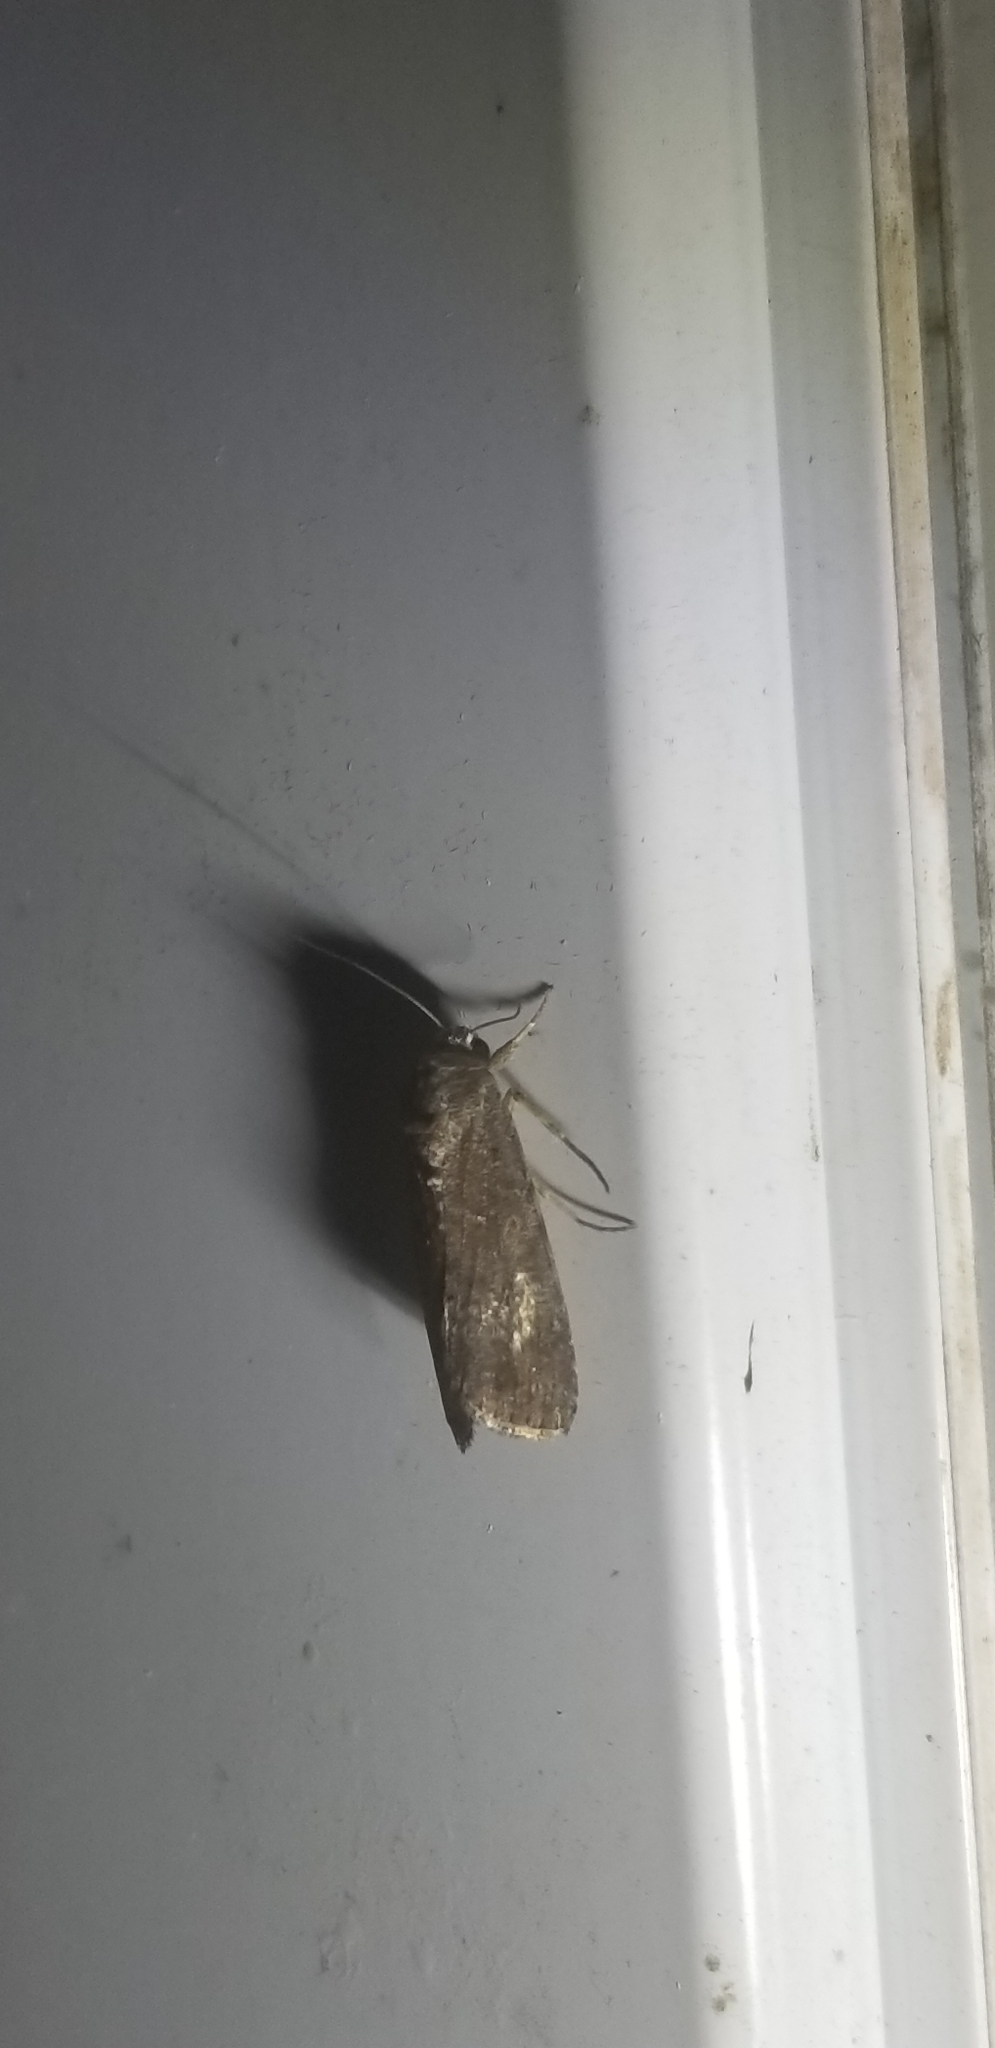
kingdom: Animalia
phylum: Arthropoda
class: Insecta
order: Lepidoptera
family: Noctuidae
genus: Spodoptera
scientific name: Spodoptera frugiperda
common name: Fall armyworm
